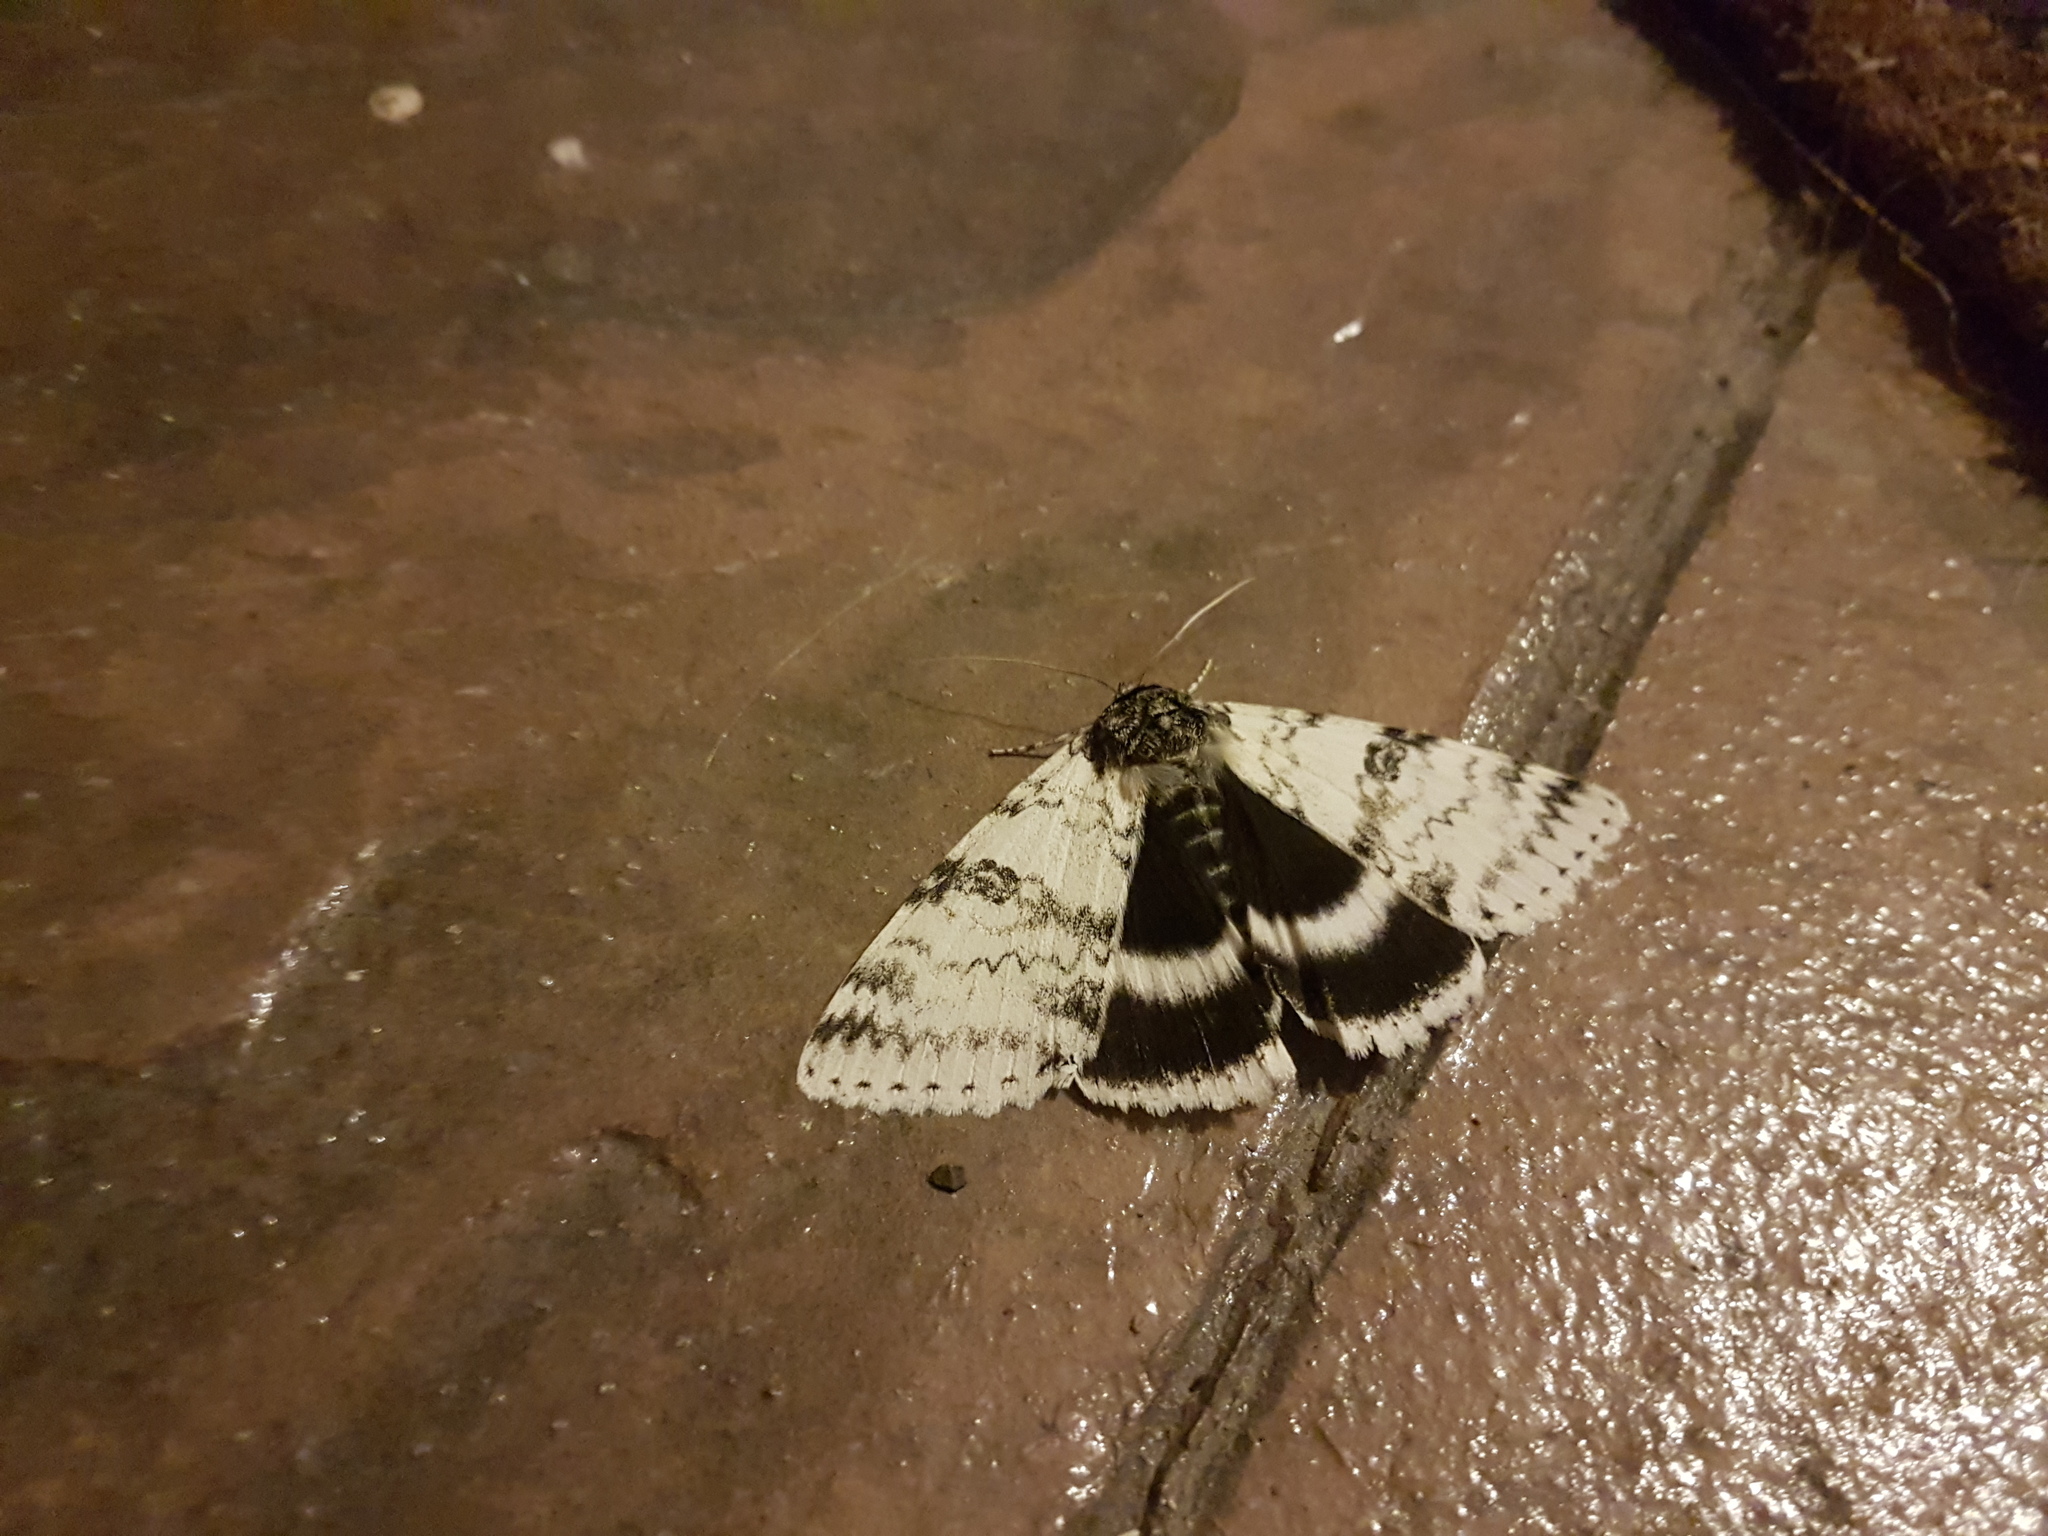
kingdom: Animalia
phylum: Arthropoda
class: Insecta
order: Lepidoptera
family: Erebidae
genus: Catocala
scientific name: Catocala relicta
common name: White underwing
